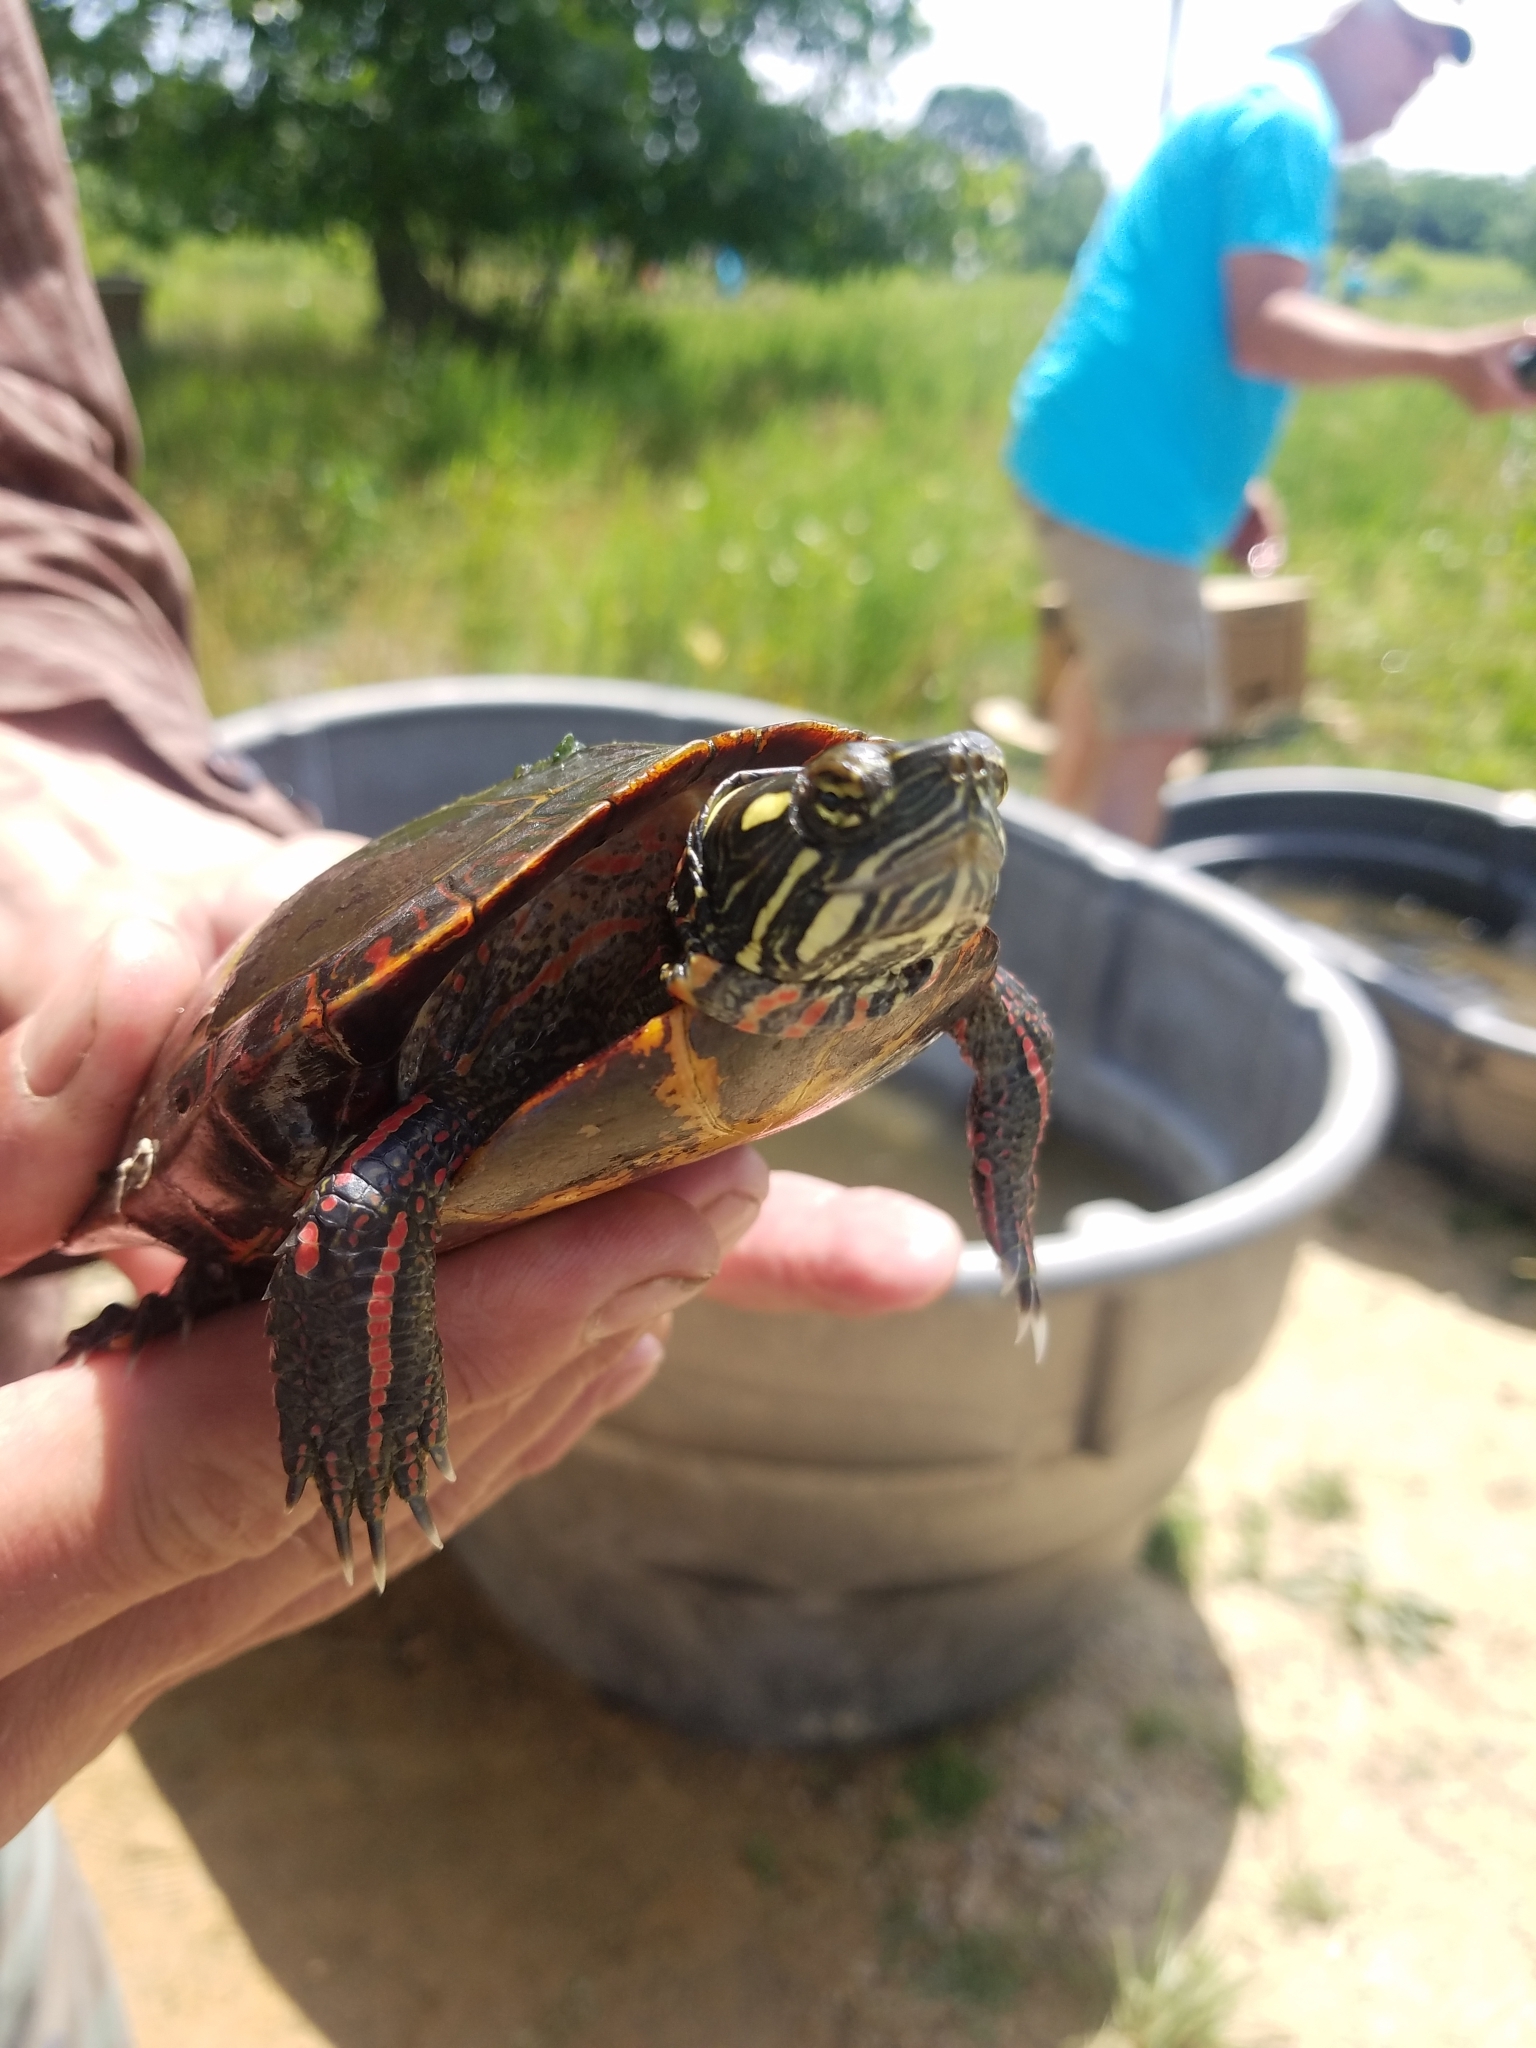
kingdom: Animalia
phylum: Chordata
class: Testudines
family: Emydidae
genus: Chrysemys
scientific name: Chrysemys picta
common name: Painted turtle
